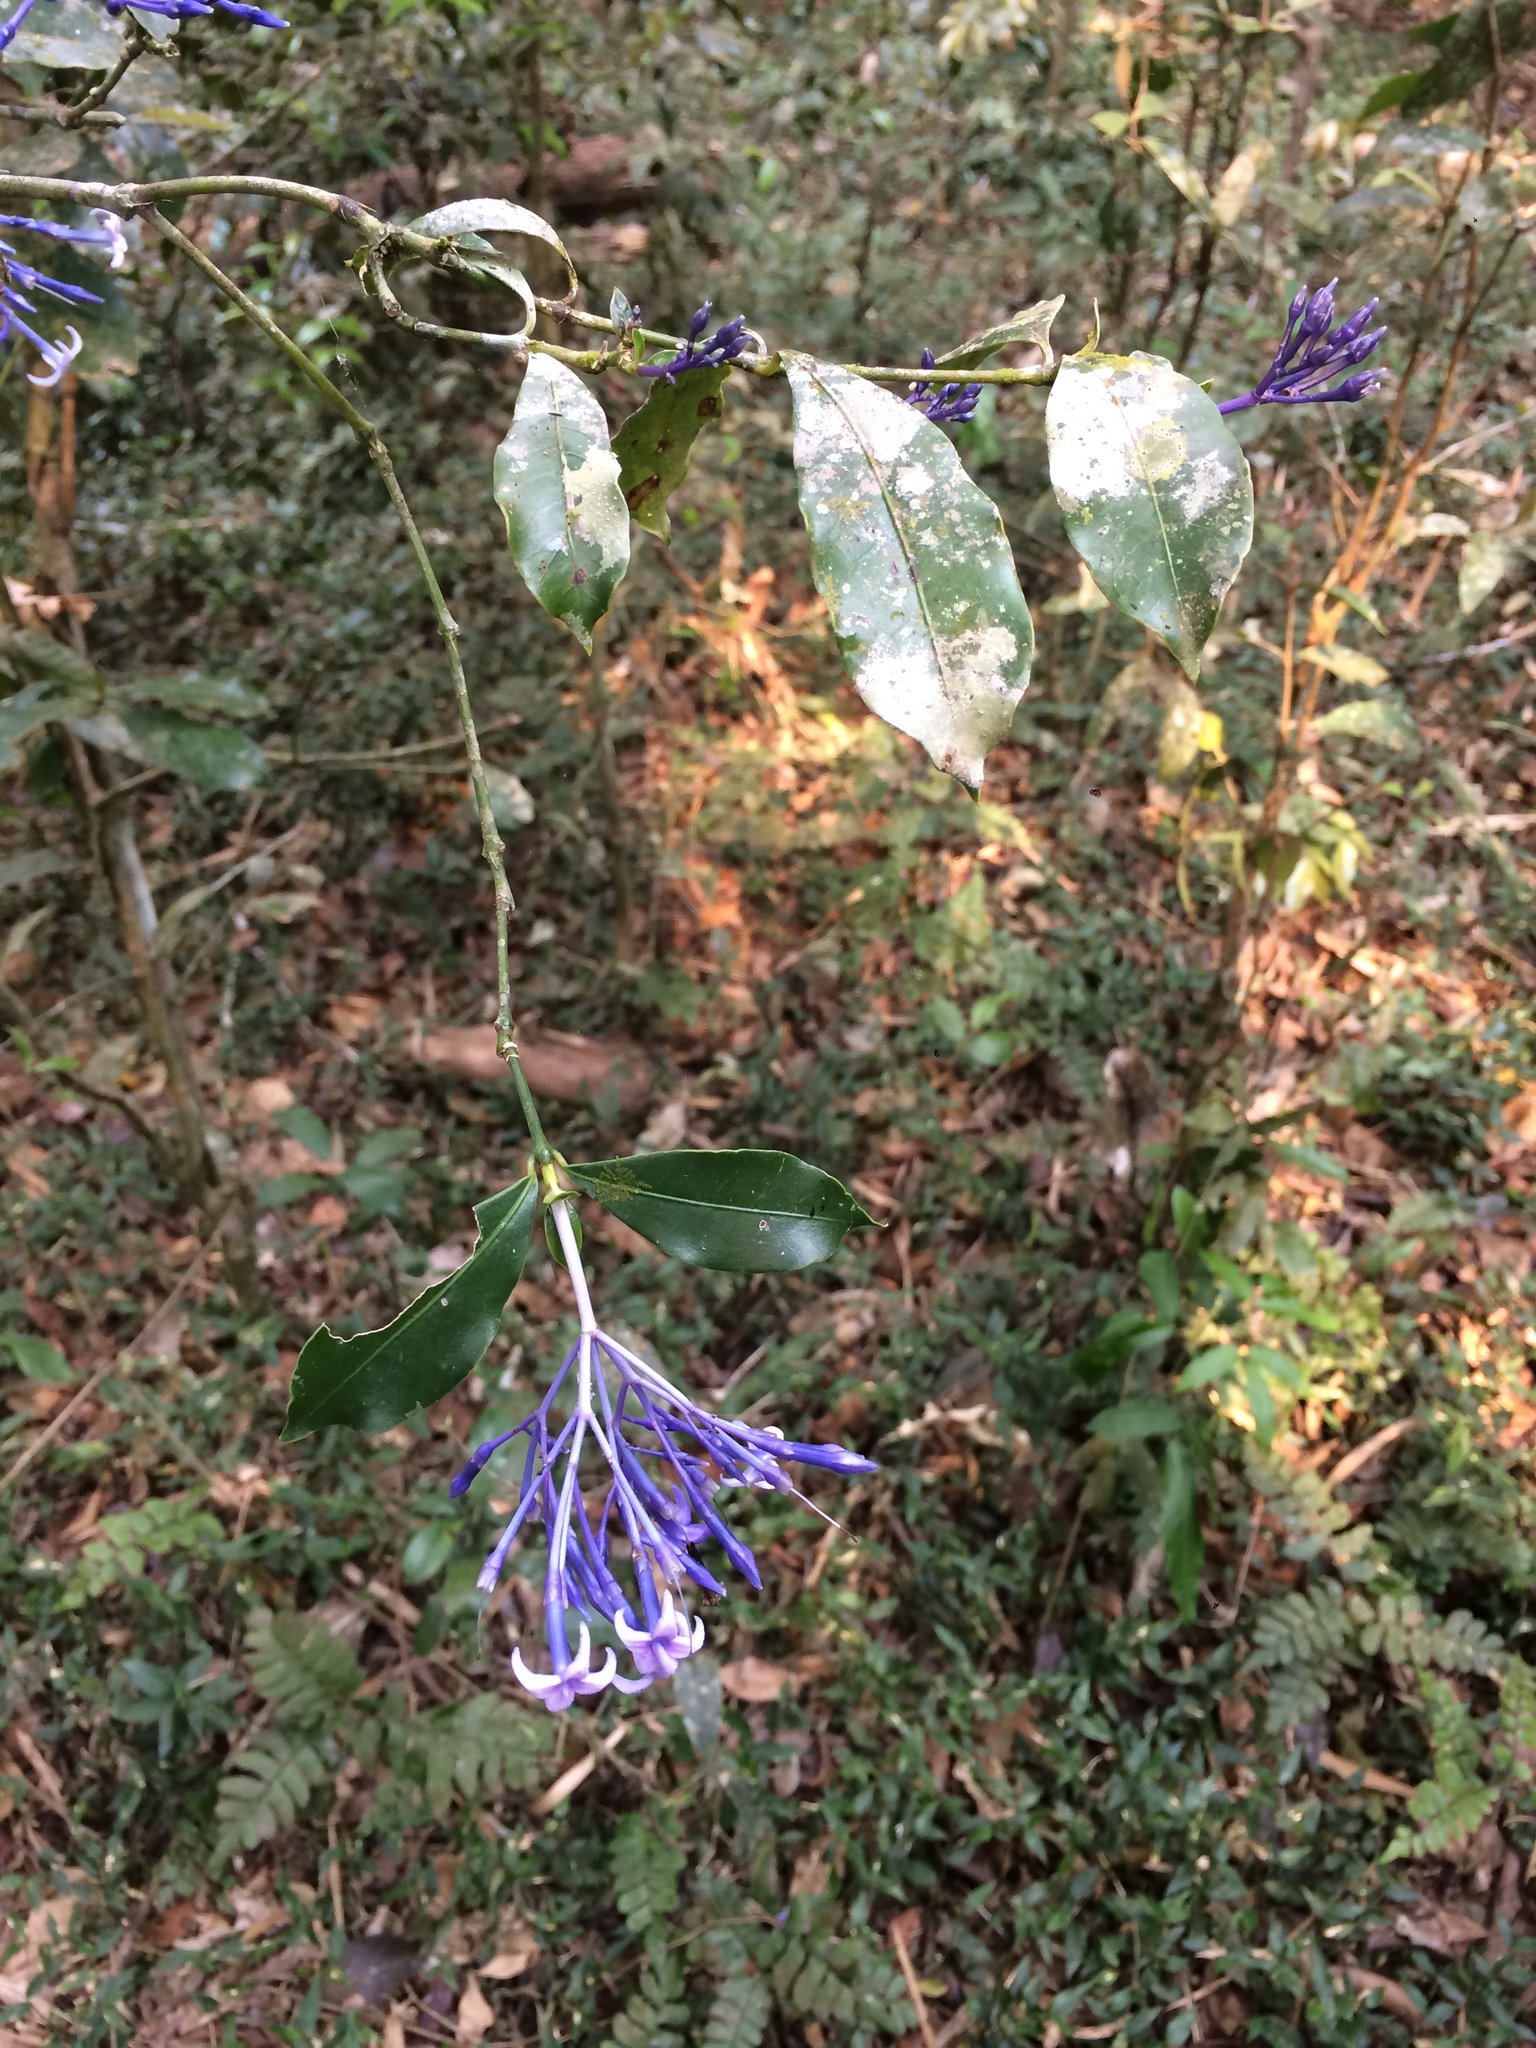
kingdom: Plantae
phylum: Tracheophyta
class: Magnoliopsida
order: Gentianales
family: Rubiaceae
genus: Faramea
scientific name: Faramea hyacinthina
